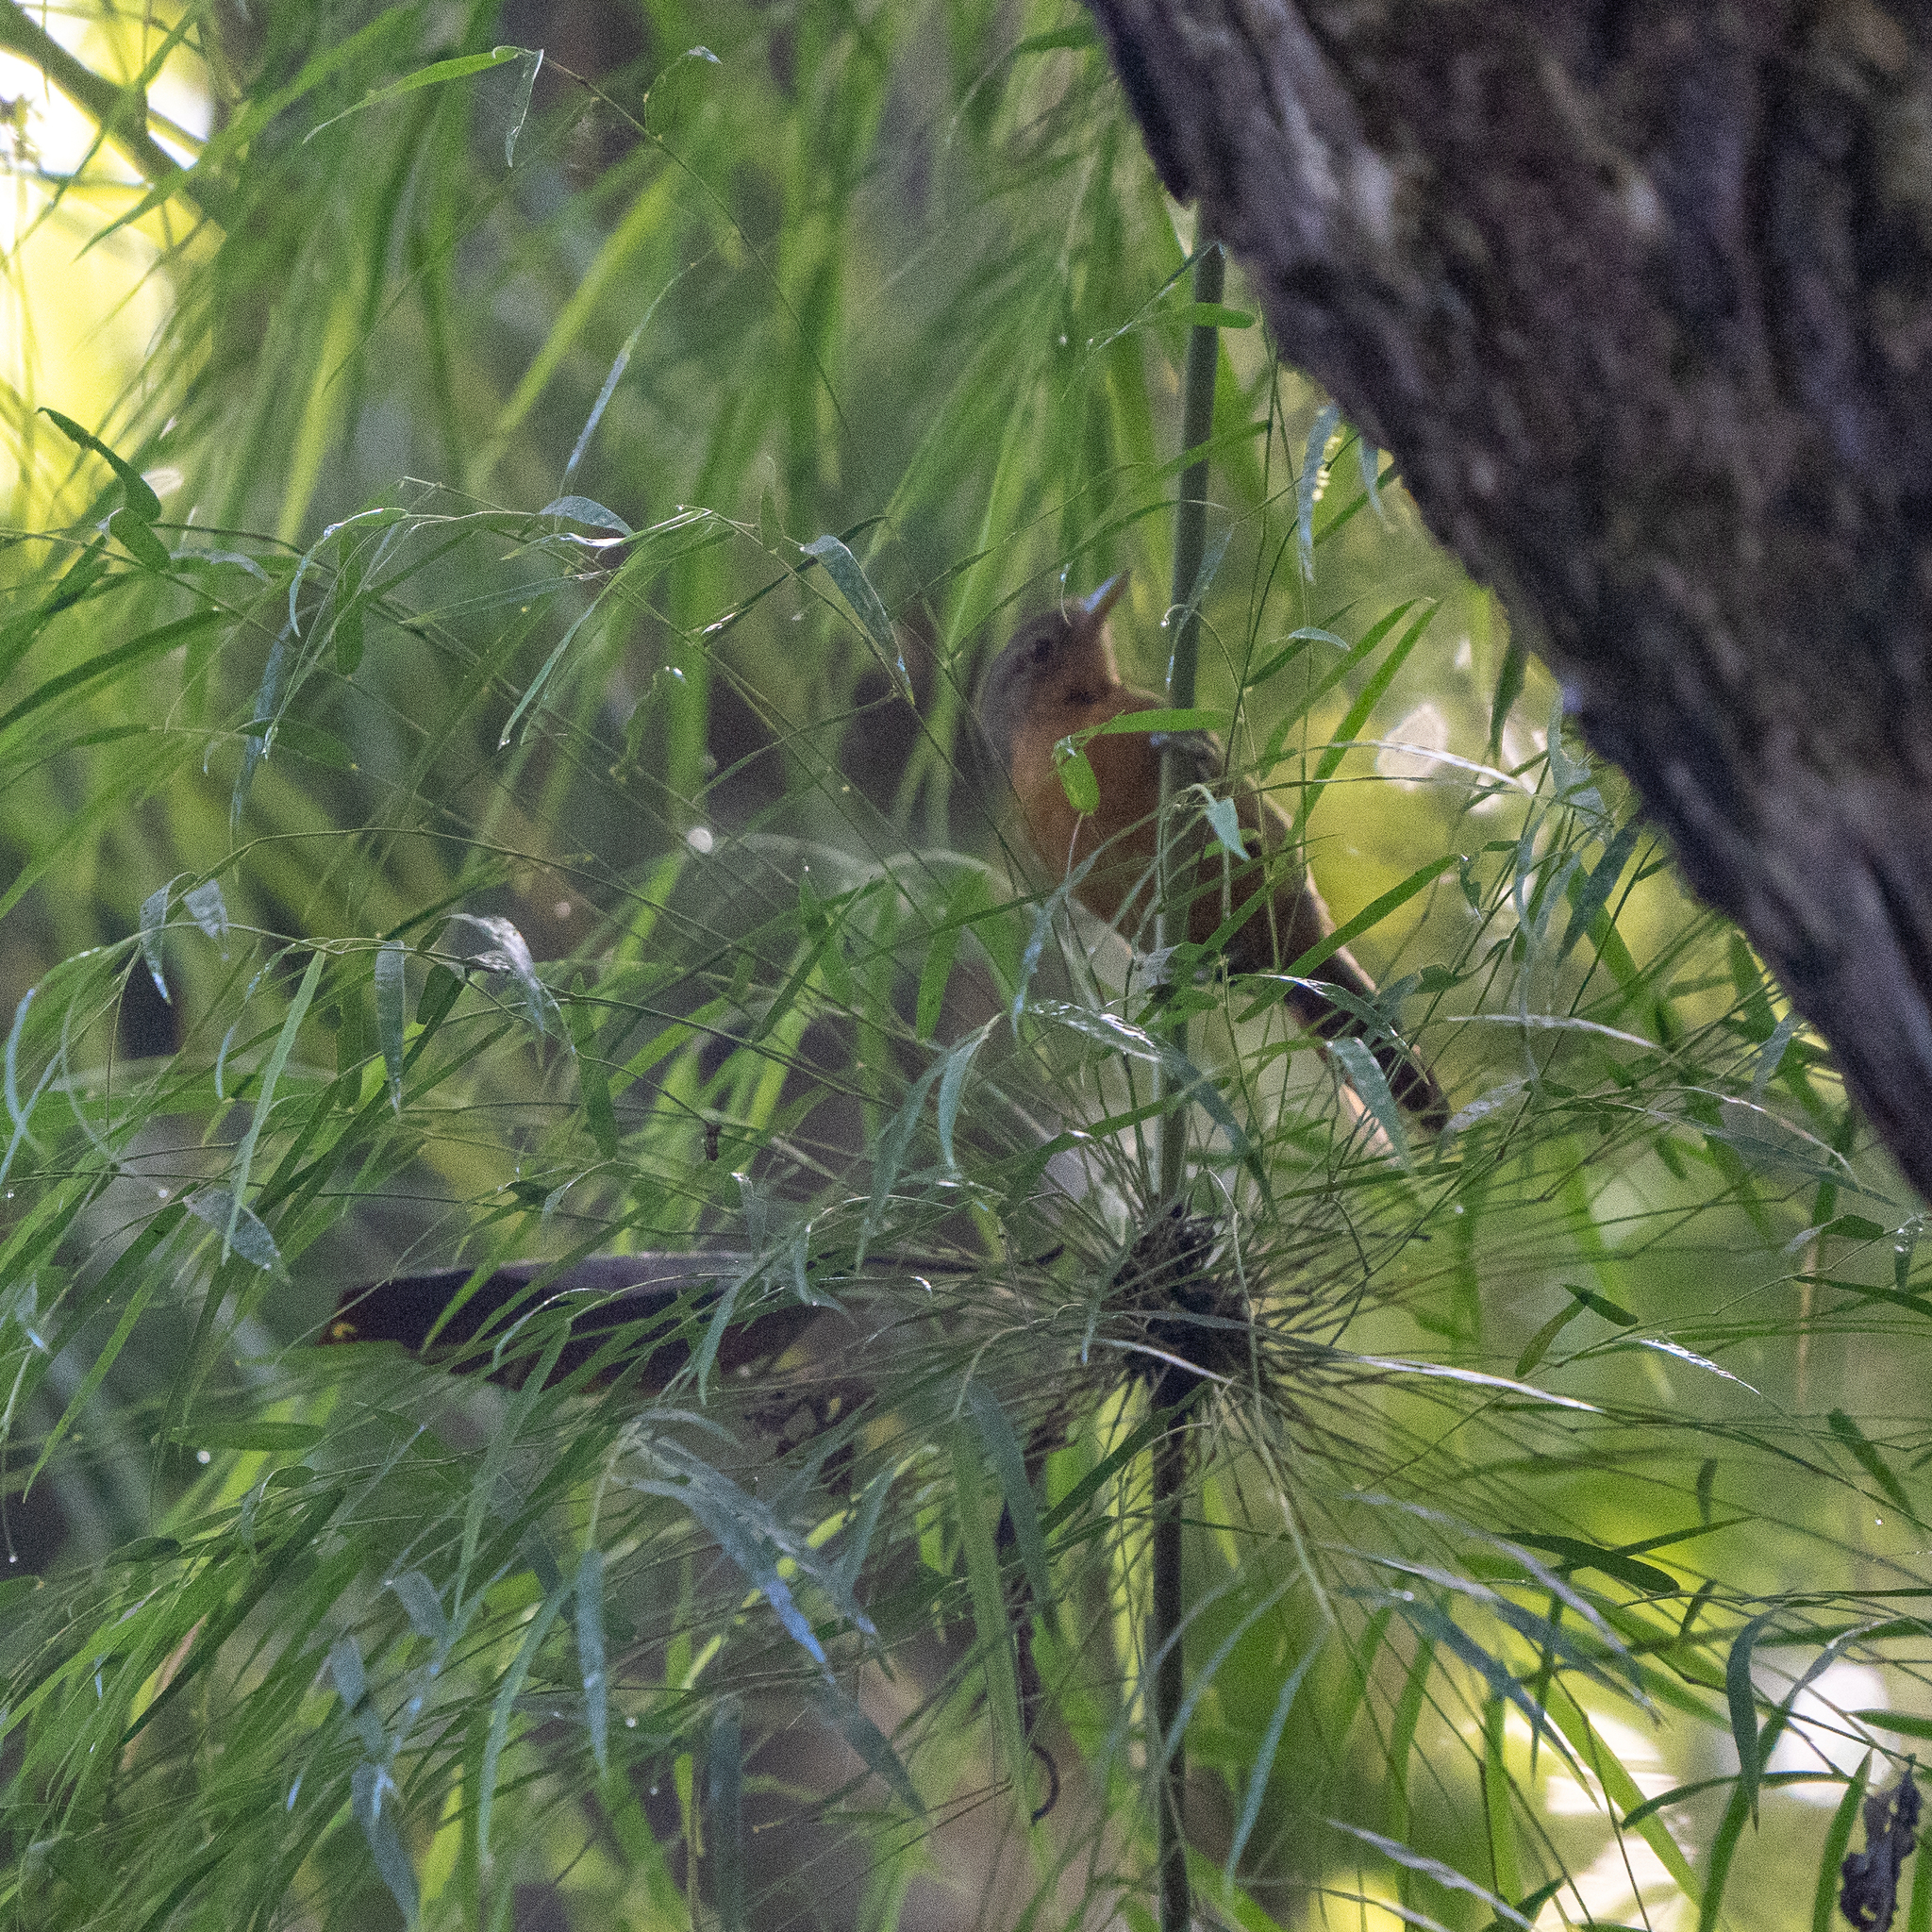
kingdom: Animalia
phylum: Chordata
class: Aves
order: Passeriformes
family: Thamnophilidae
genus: Cercomacra
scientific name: Cercomacra tyrannina
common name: Dusky antbird
